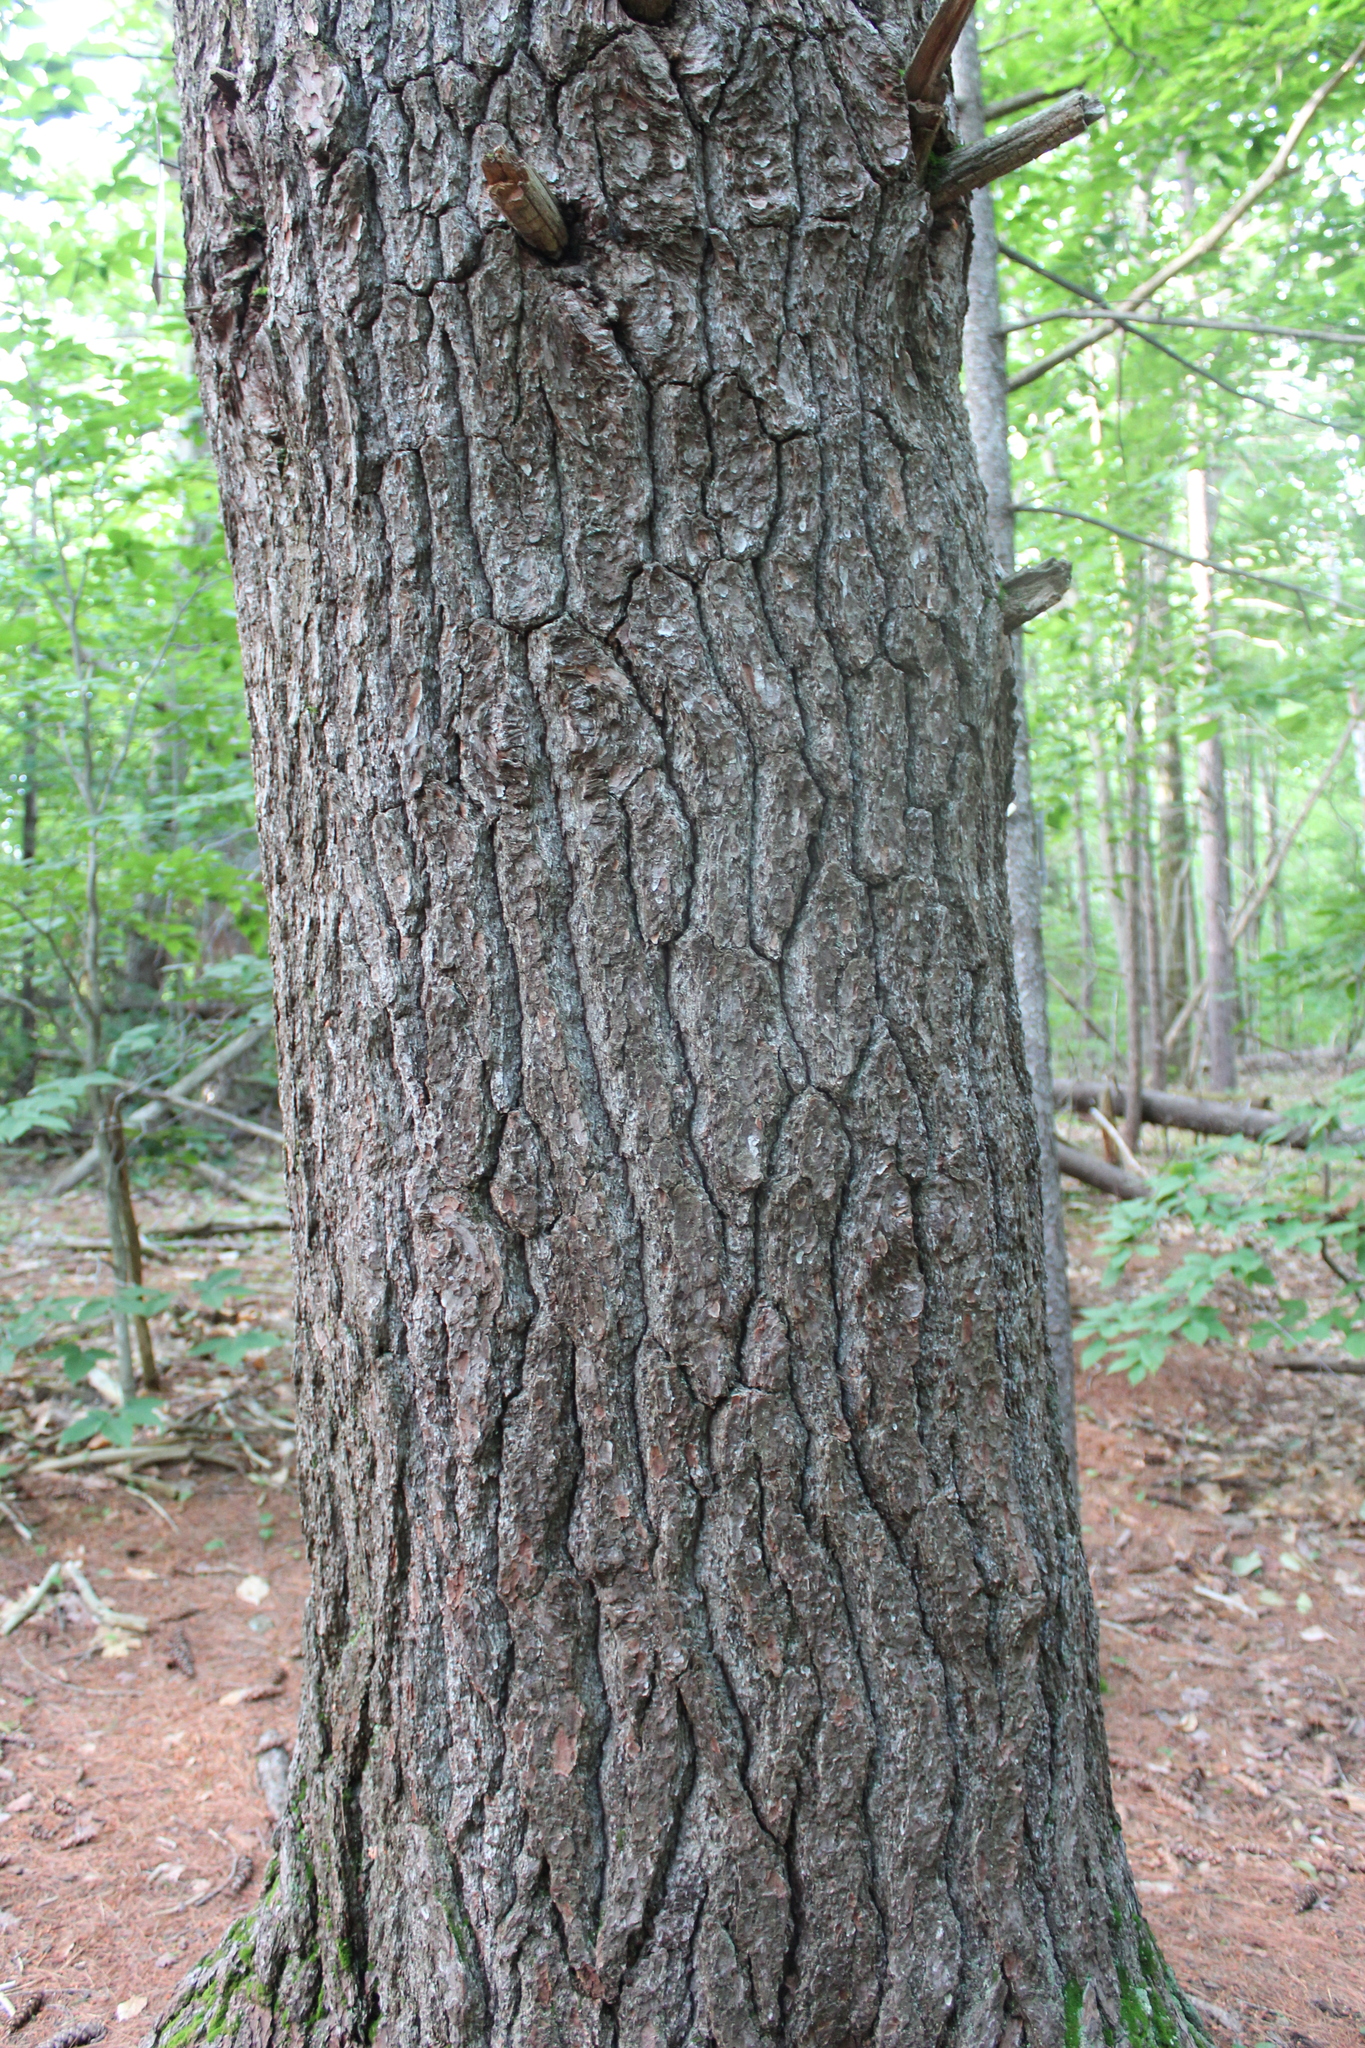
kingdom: Plantae
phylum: Tracheophyta
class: Pinopsida
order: Pinales
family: Pinaceae
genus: Pinus
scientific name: Pinus strobus
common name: Weymouth pine
